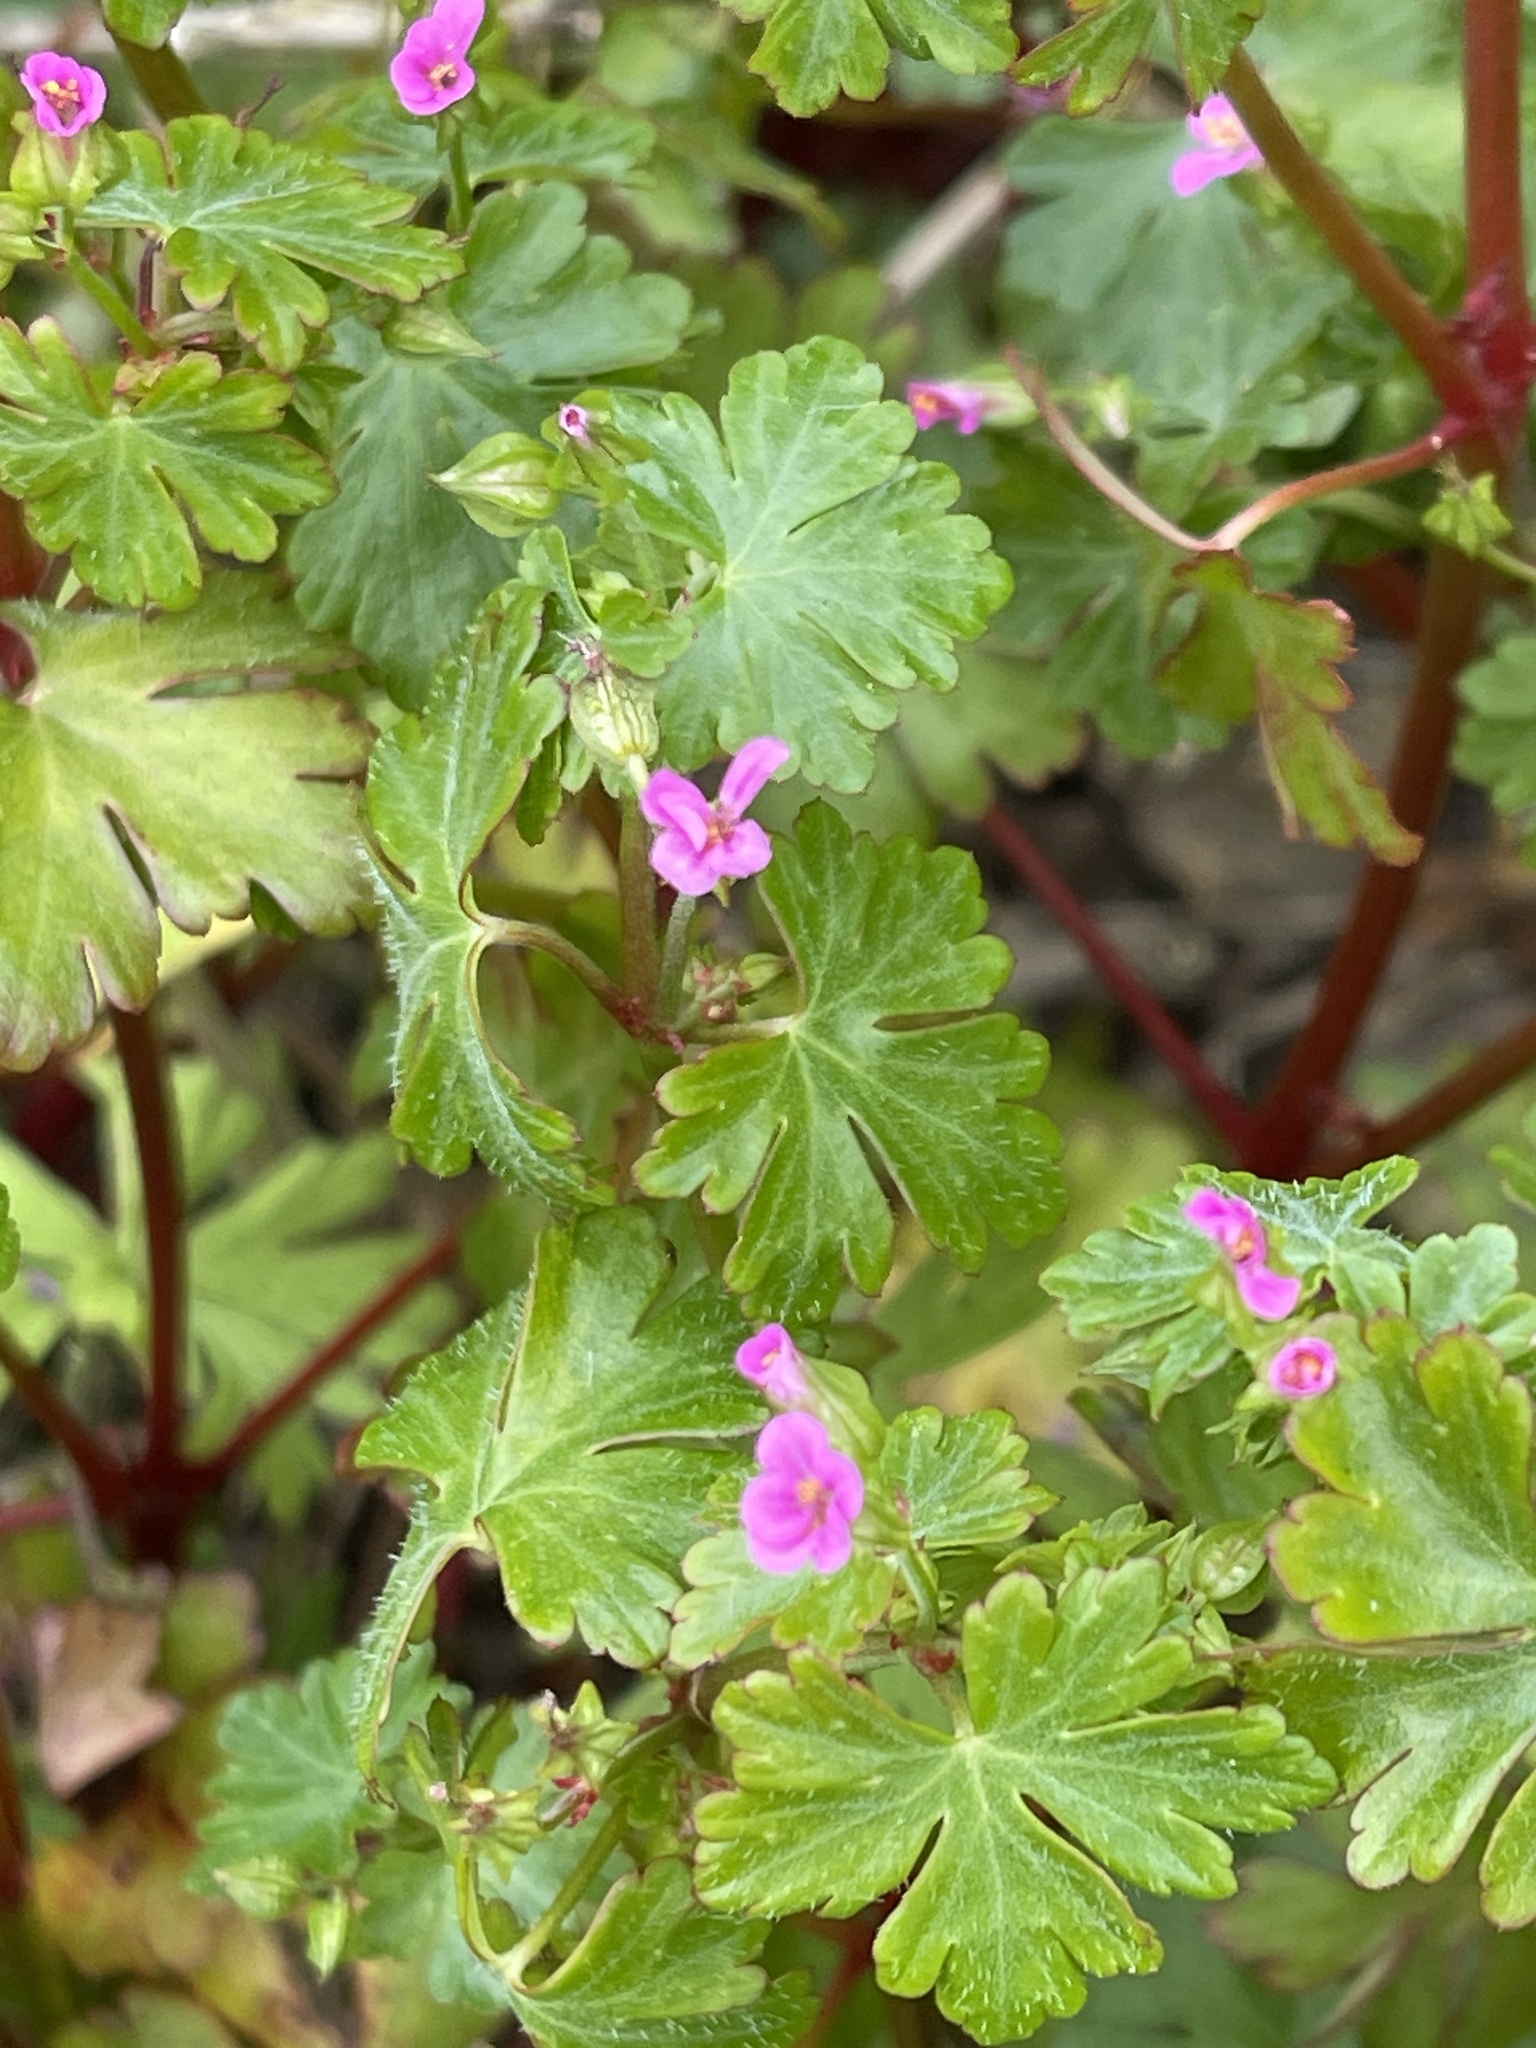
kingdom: Plantae
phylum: Tracheophyta
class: Magnoliopsida
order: Geraniales
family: Geraniaceae
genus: Geranium
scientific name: Geranium lucidum
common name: Shining crane's-bill
